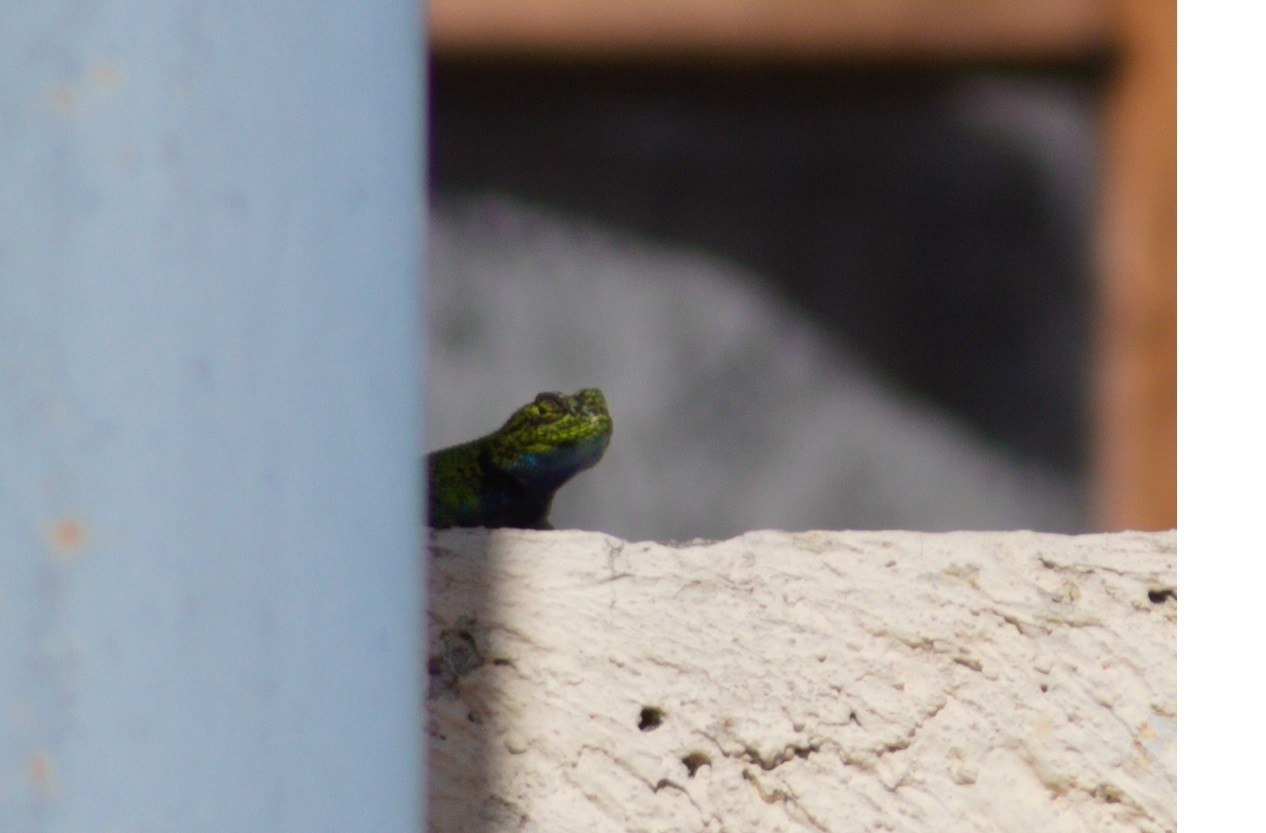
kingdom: Animalia
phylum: Chordata
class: Squamata
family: Phrynosomatidae
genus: Sceloporus
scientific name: Sceloporus taeniocnemis
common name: Guatemalan emerald spiny lizard
